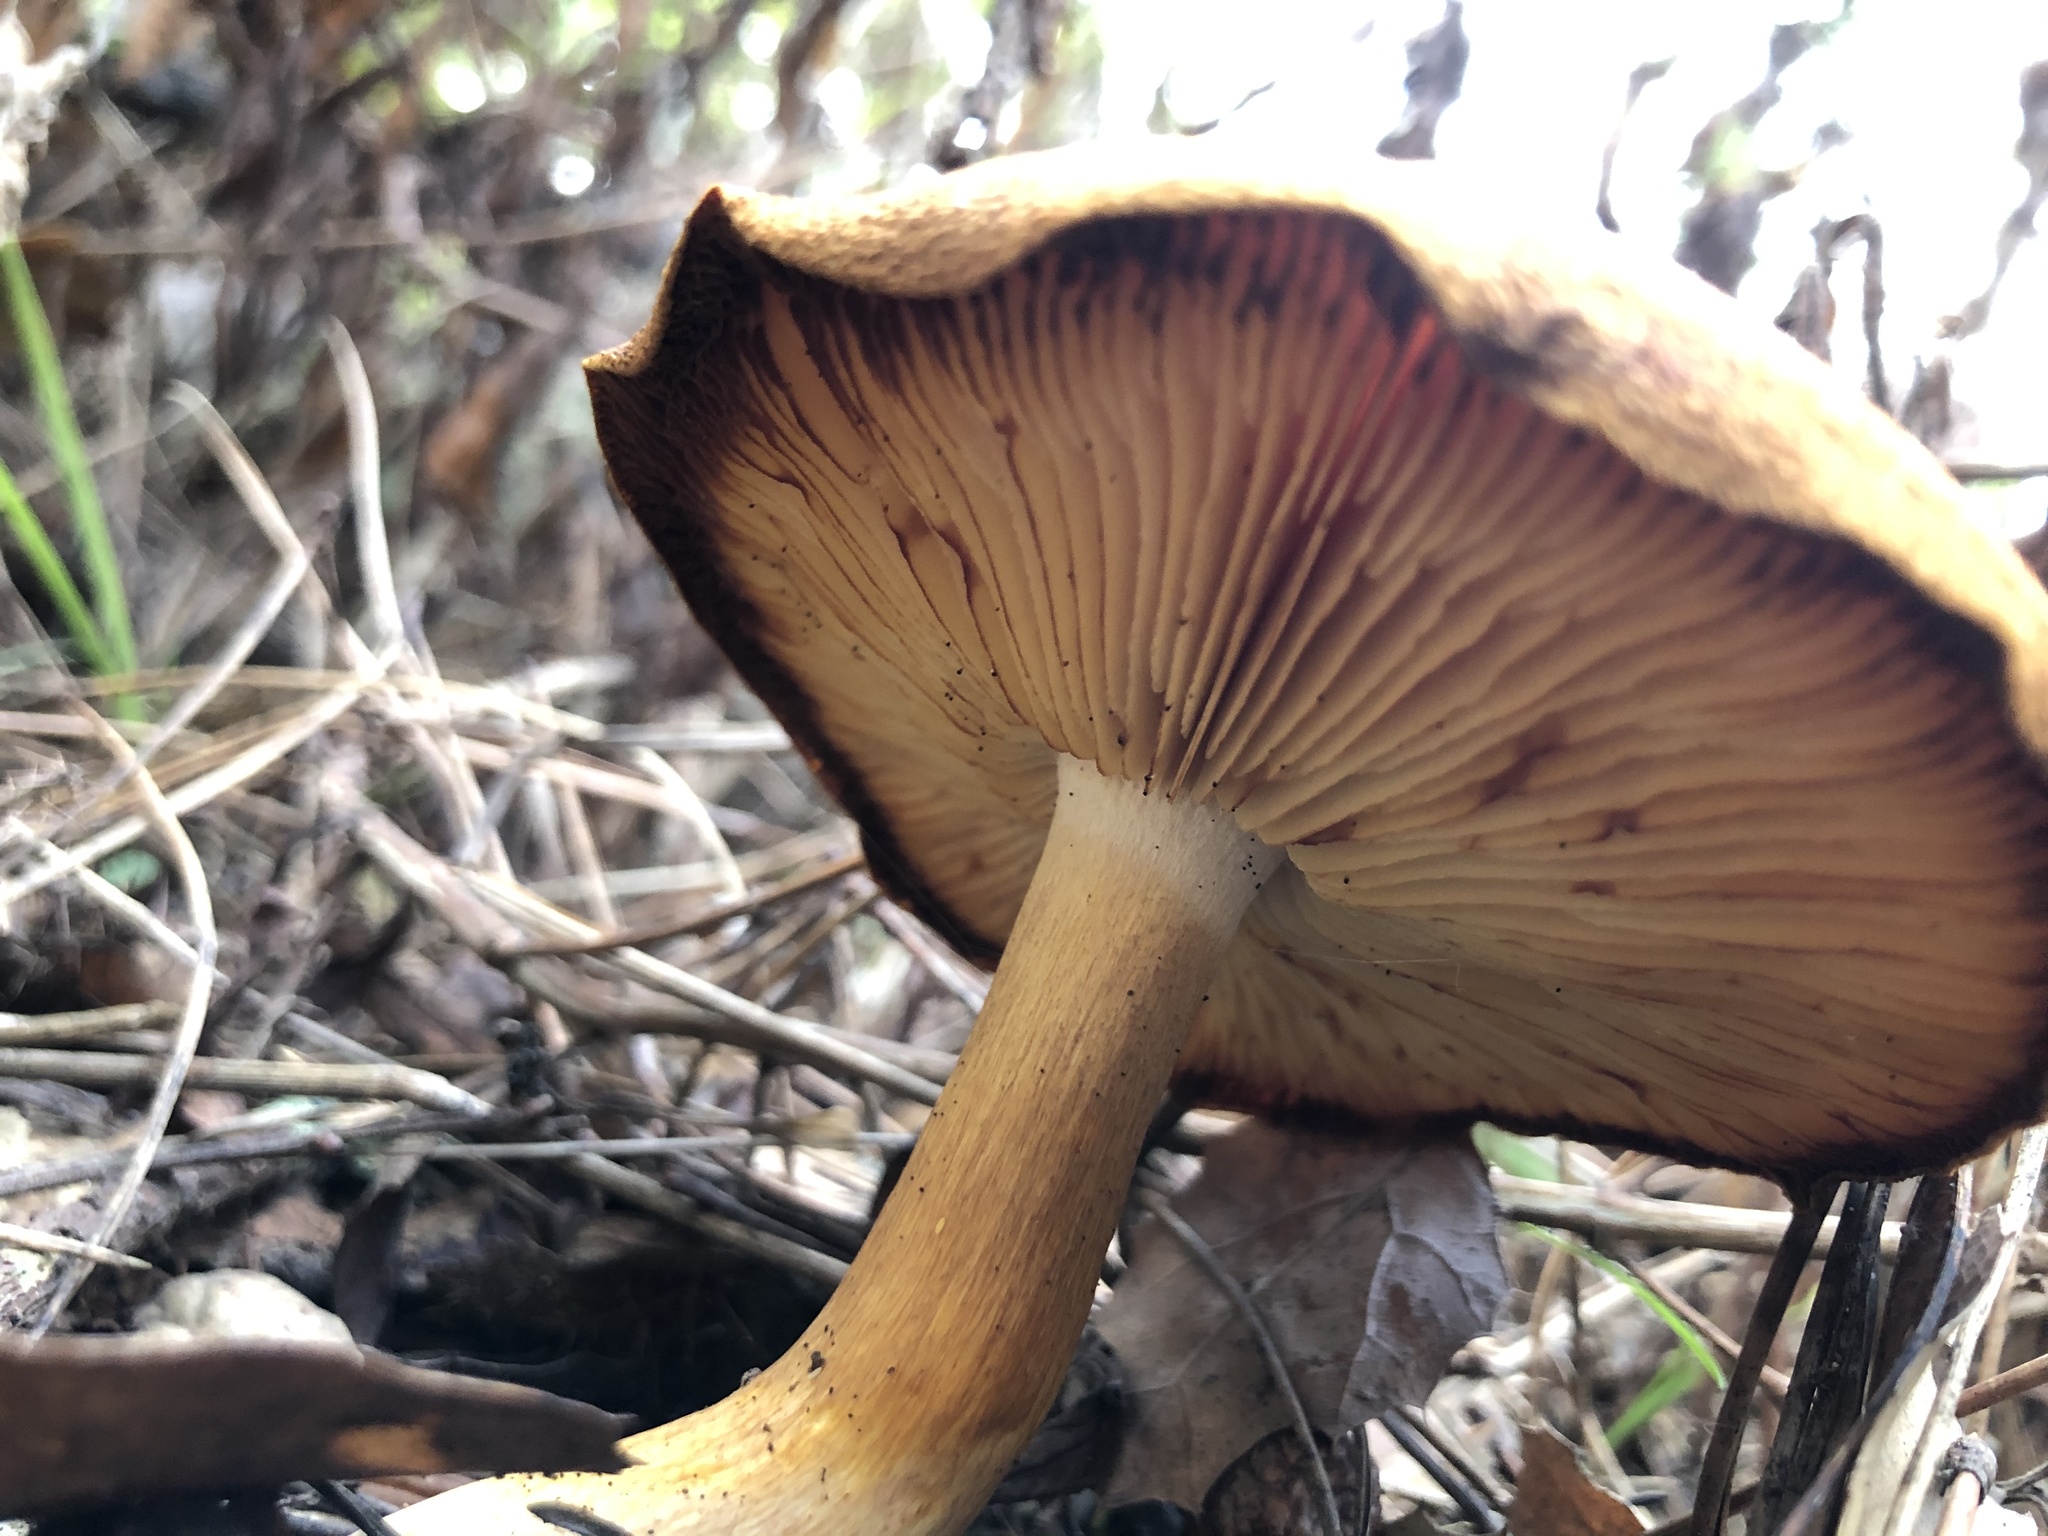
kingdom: Fungi
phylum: Basidiomycota
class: Agaricomycetes
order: Agaricales
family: Tricholomataceae
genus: Tricholomopsis
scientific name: Tricholomopsis rutilans
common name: Plums and custard
